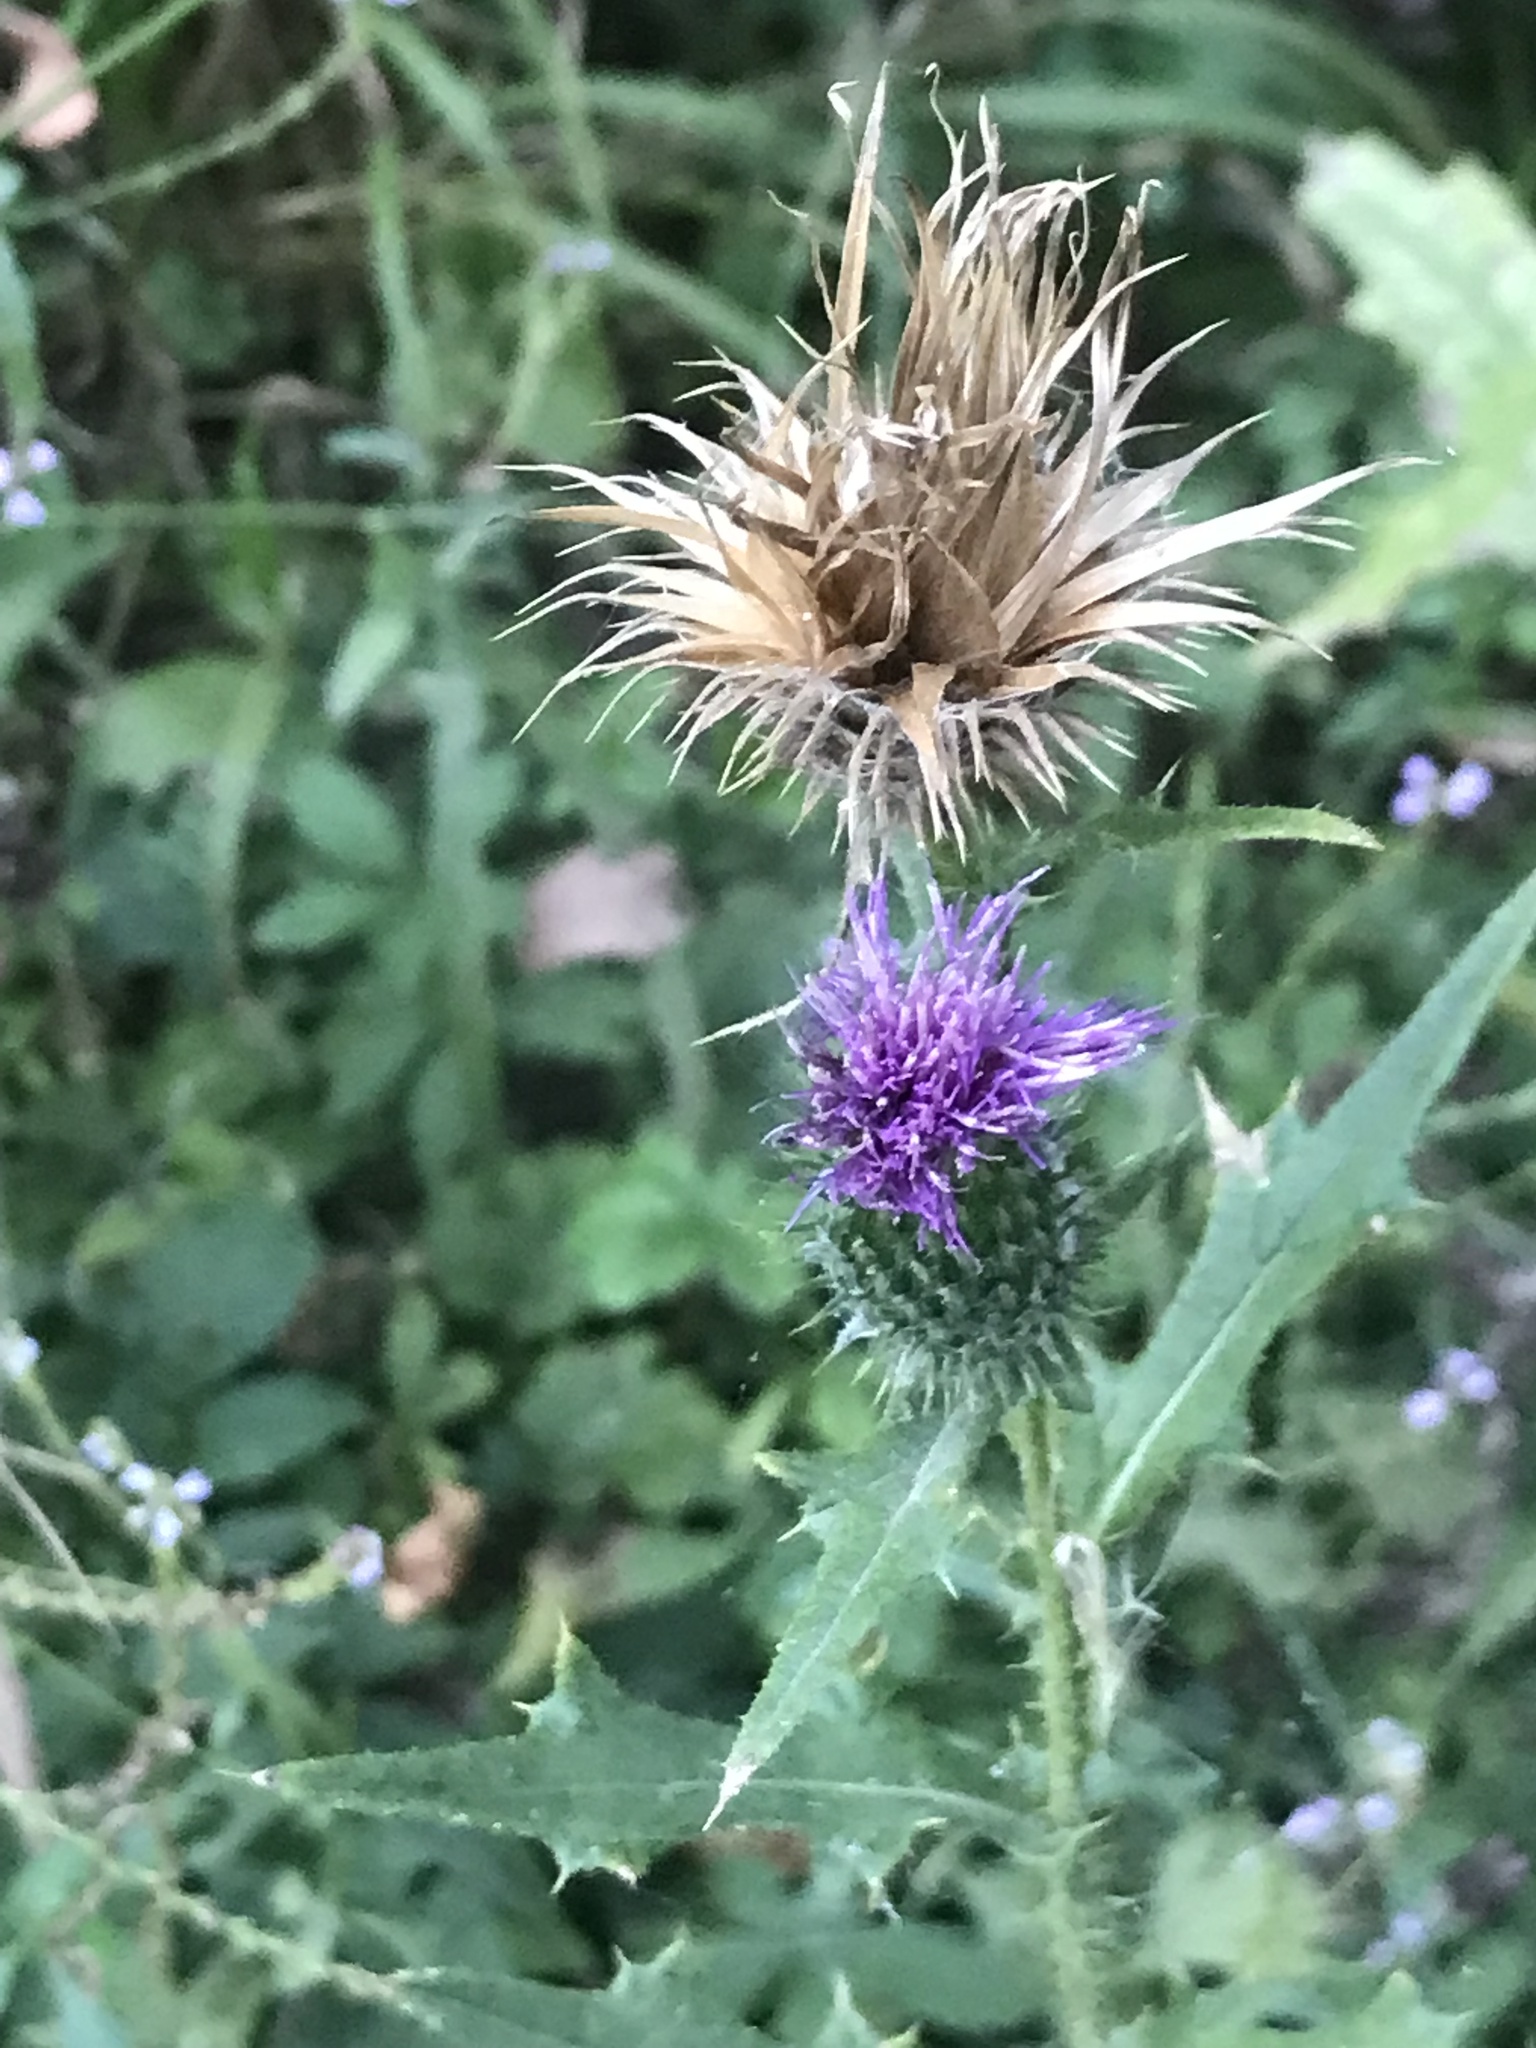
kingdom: Plantae
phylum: Tracheophyta
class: Magnoliopsida
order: Asterales
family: Asteraceae
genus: Cirsium
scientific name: Cirsium vulgare
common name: Bull thistle
